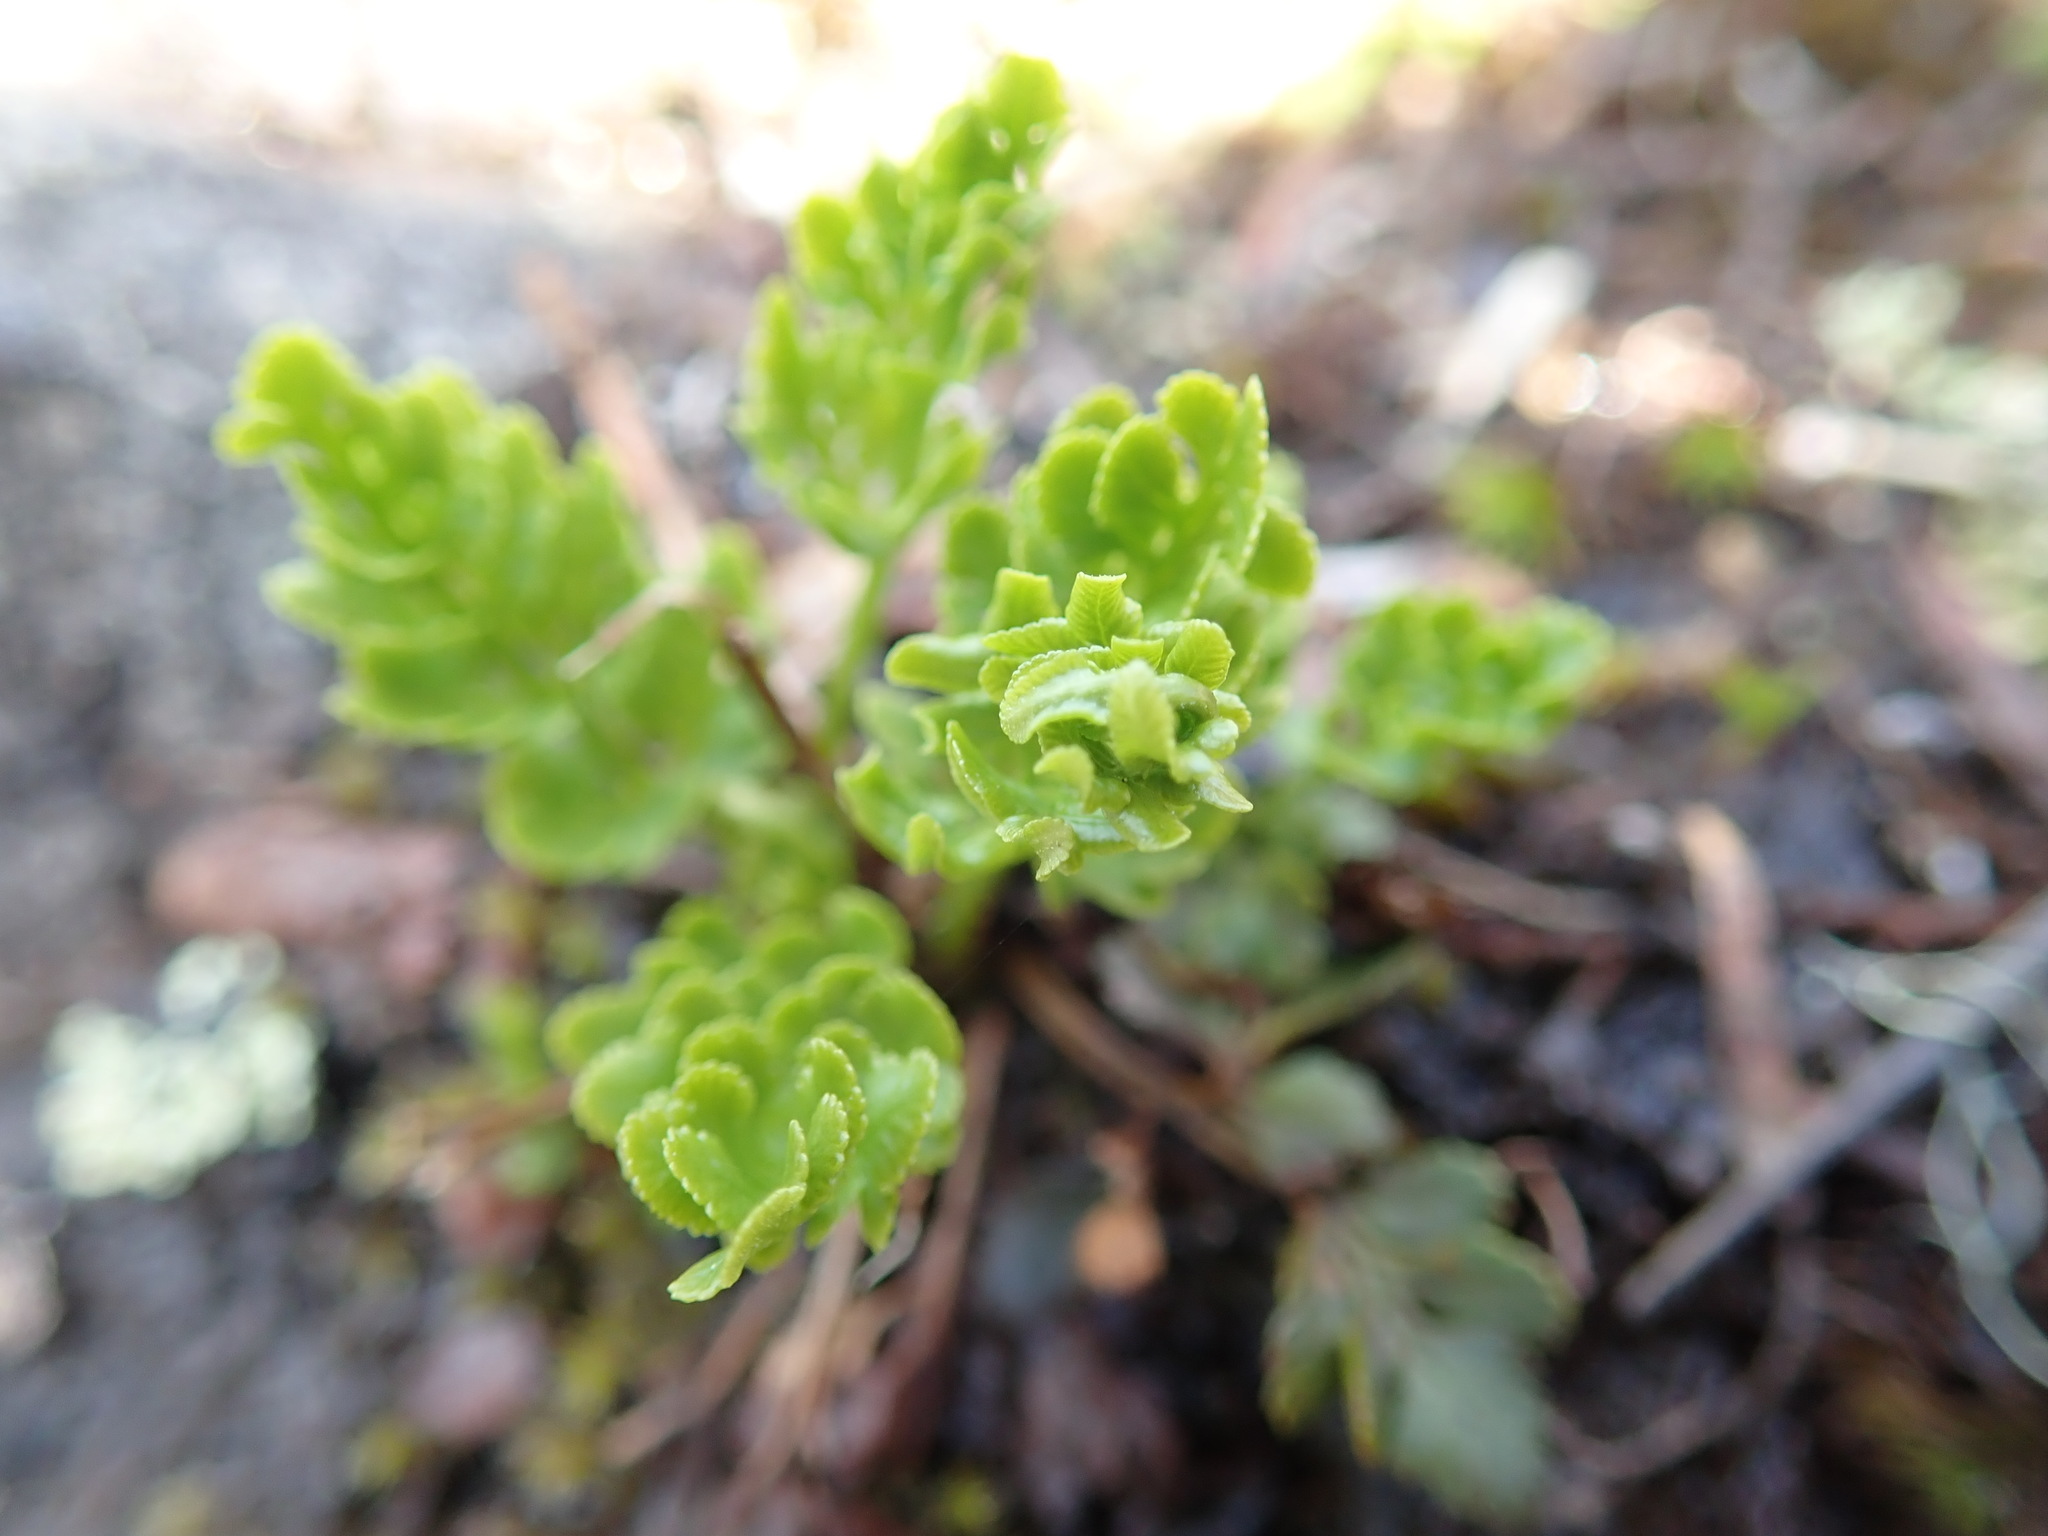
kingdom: Plantae
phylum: Tracheophyta
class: Polypodiopsida
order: Polypodiales
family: Pteridaceae
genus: Cryptogramma
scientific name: Cryptogramma acrostichoides
